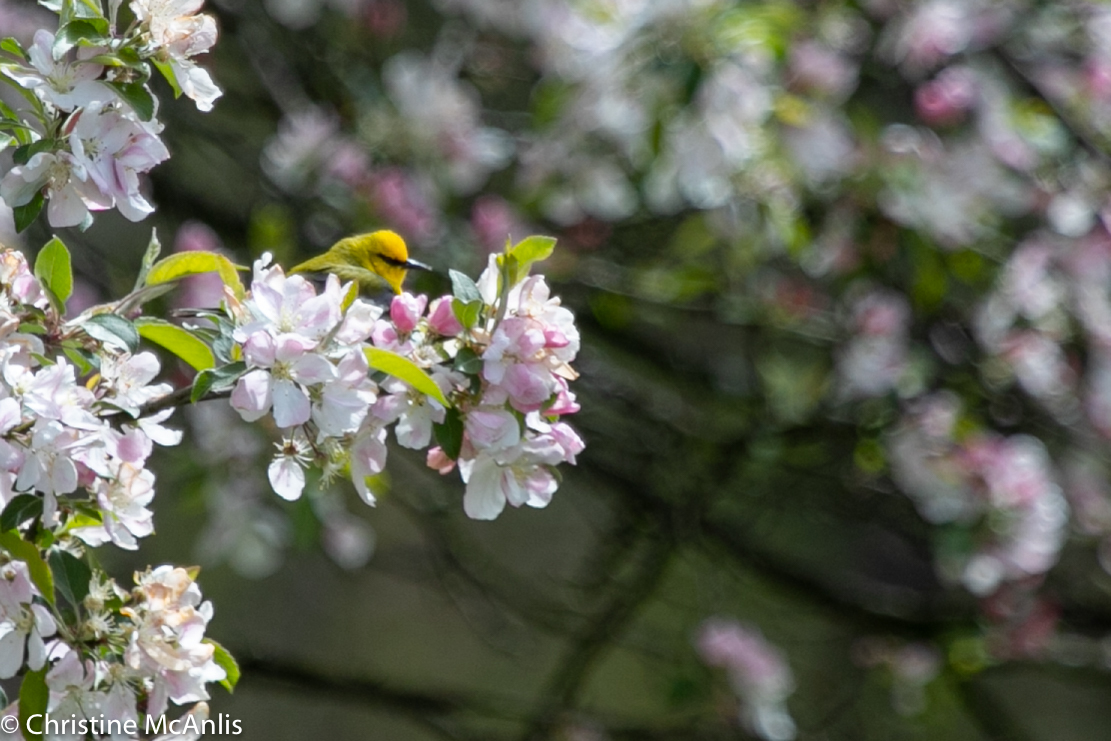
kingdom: Animalia
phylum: Chordata
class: Aves
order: Passeriformes
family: Parulidae
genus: Vermivora
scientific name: Vermivora cyanoptera
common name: Blue-winged warbler
